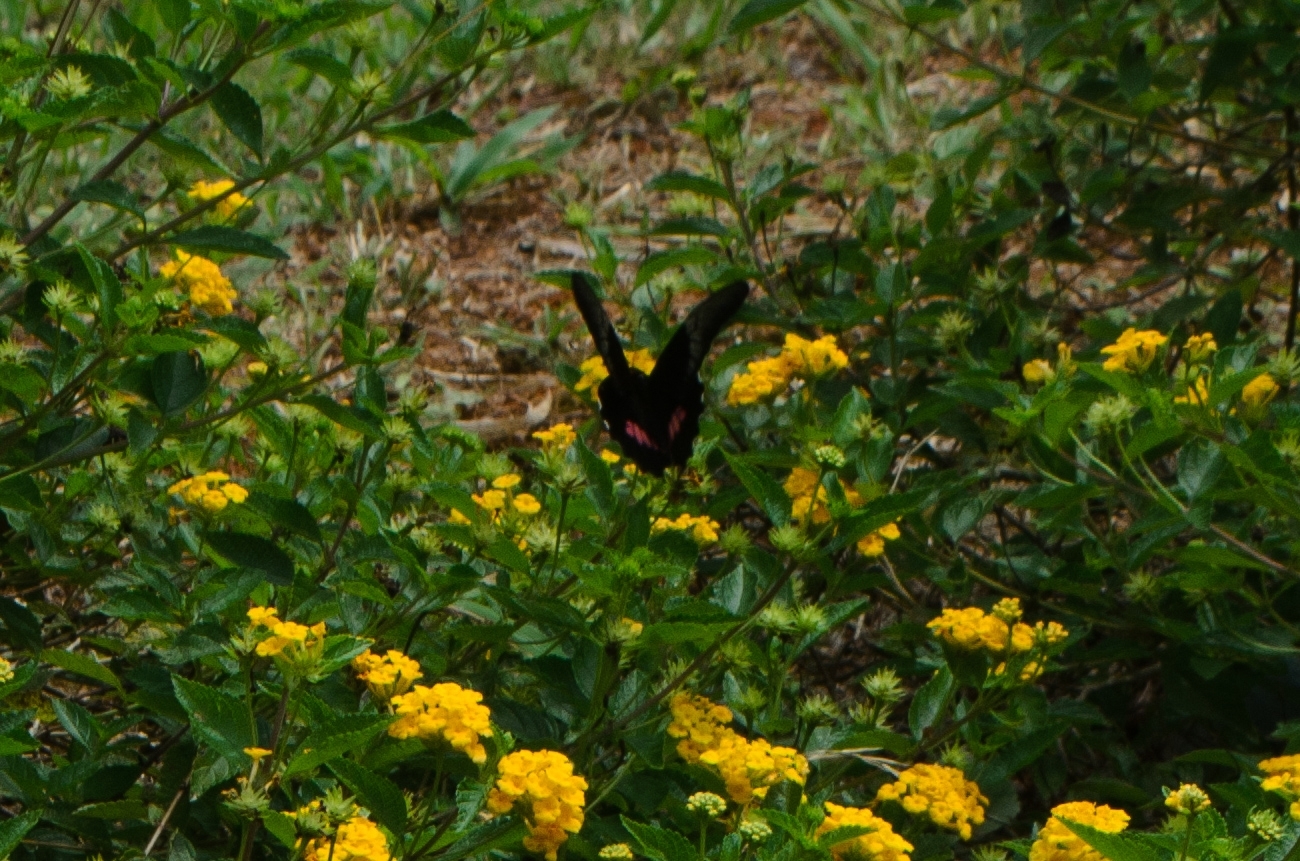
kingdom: Animalia
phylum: Arthropoda
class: Insecta
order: Lepidoptera
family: Papilionidae
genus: Papilio
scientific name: Papilio anchisiades
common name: Idaes swallowtail
